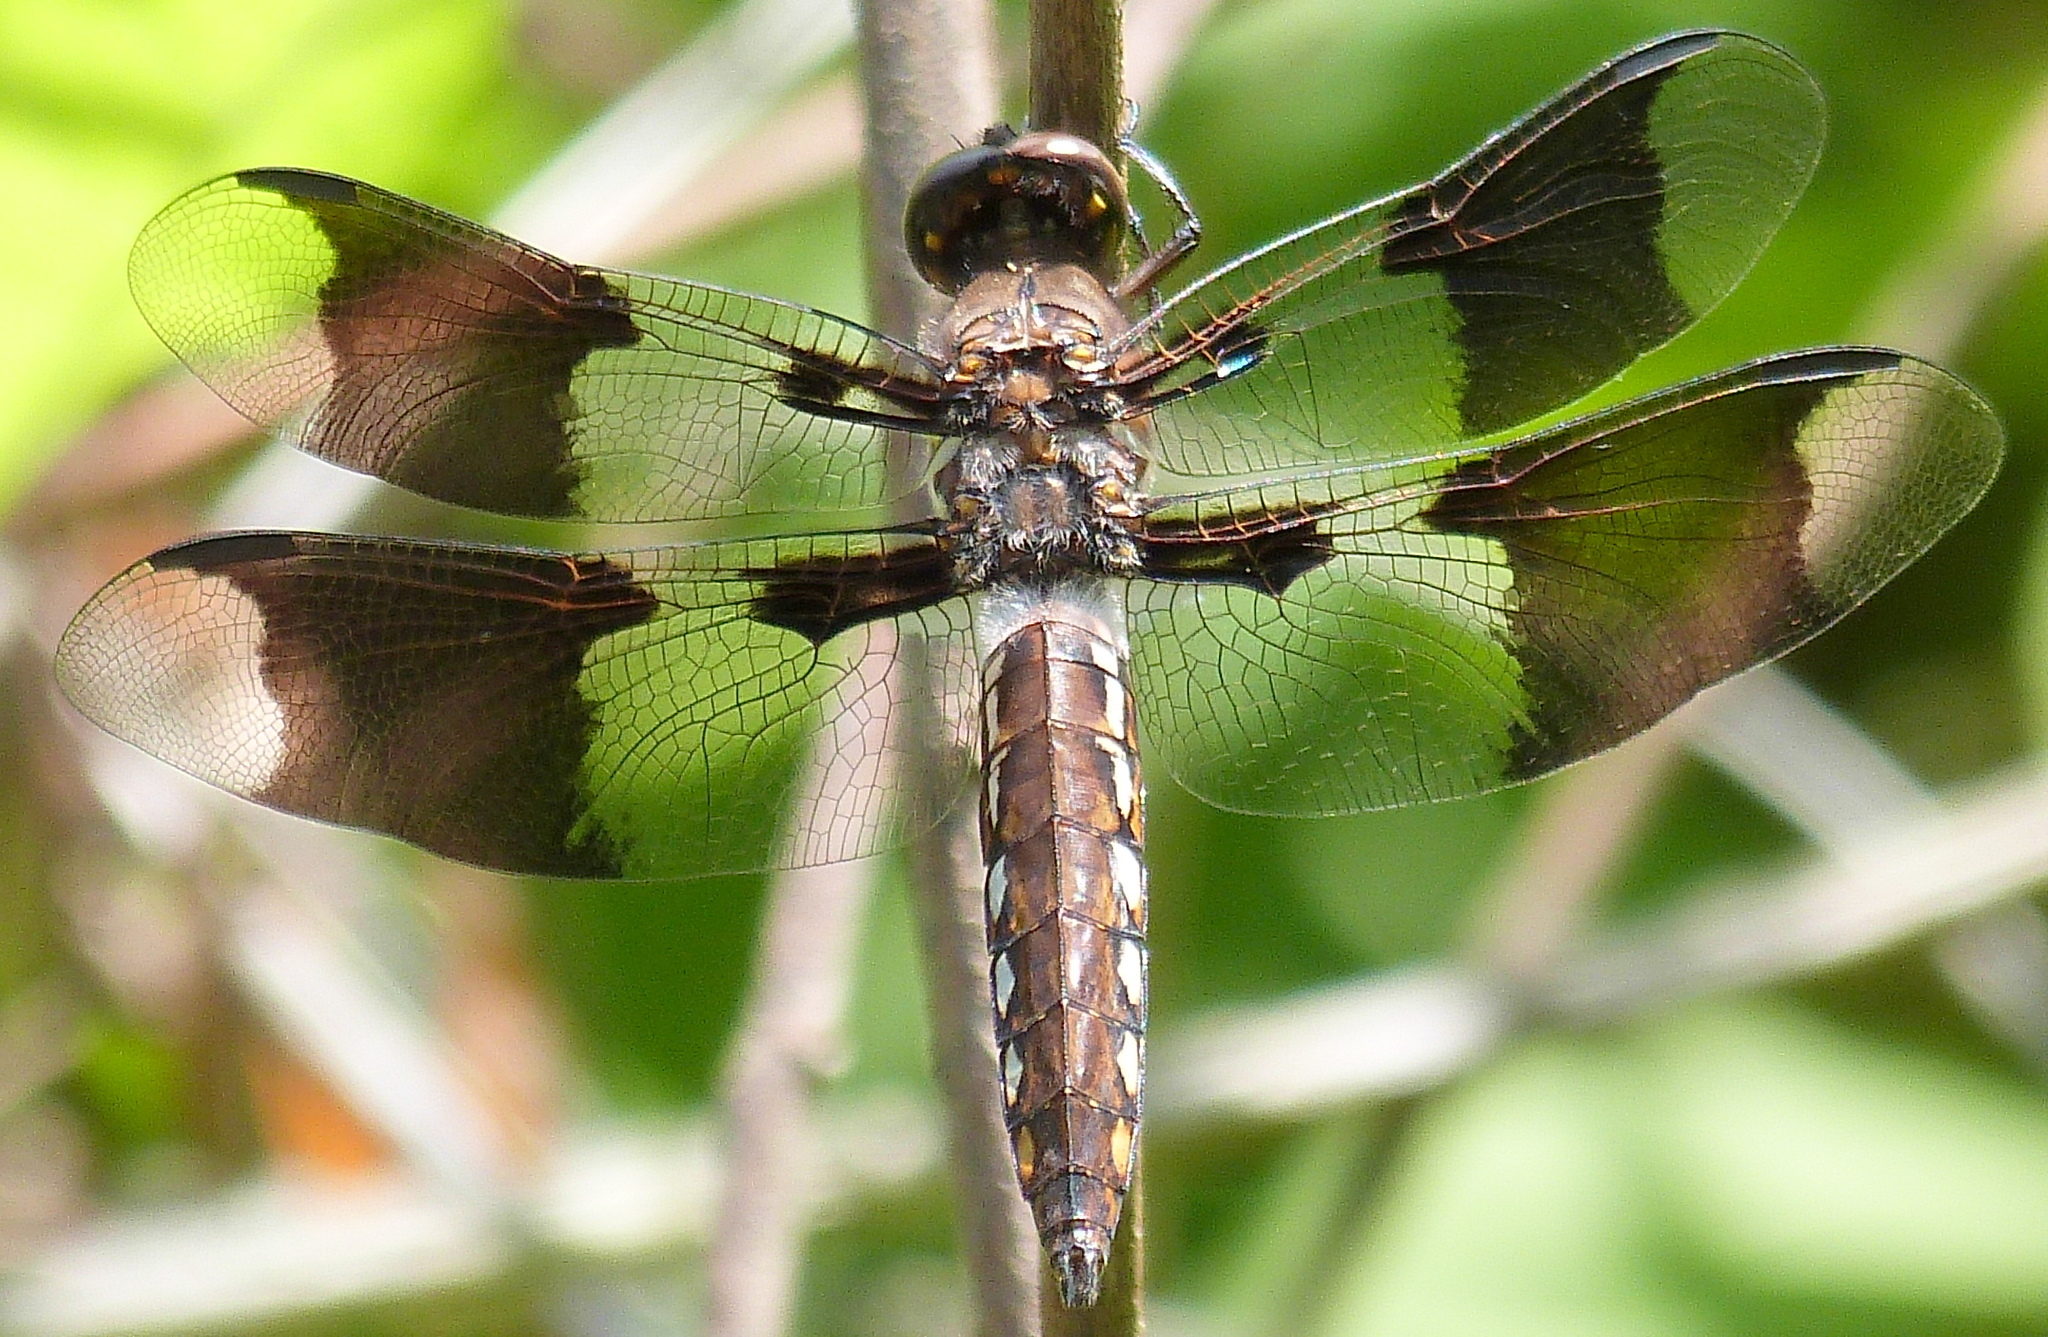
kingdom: Animalia
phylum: Arthropoda
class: Insecta
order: Odonata
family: Libellulidae
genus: Plathemis
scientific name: Plathemis lydia
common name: Common whitetail
